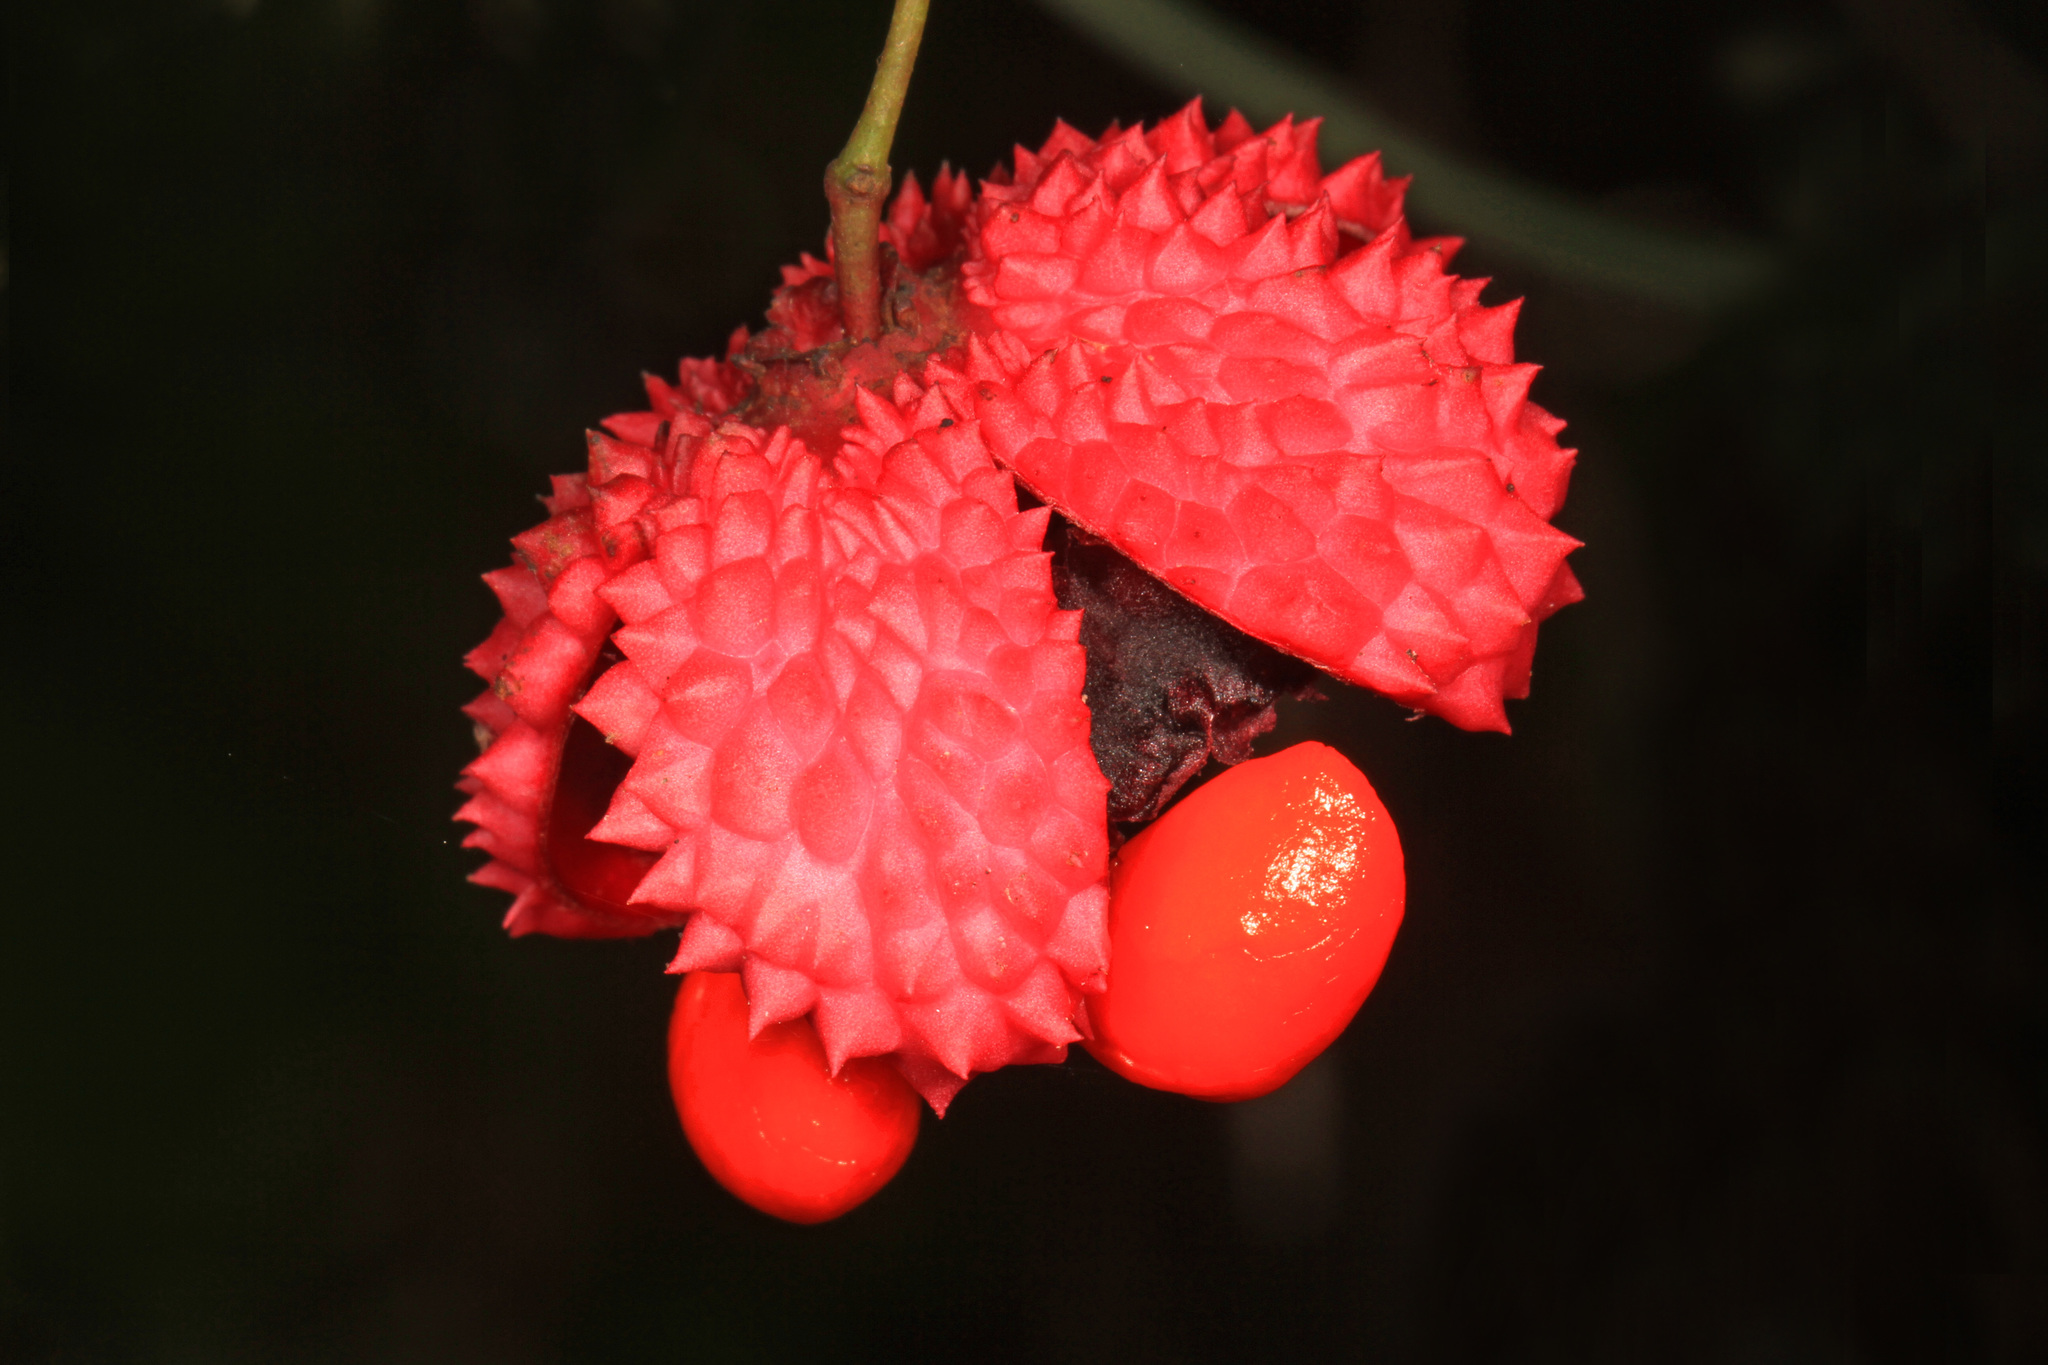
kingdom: Plantae
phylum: Tracheophyta
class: Magnoliopsida
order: Celastrales
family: Celastraceae
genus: Euonymus
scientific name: Euonymus americanus
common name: Bursting-heart
